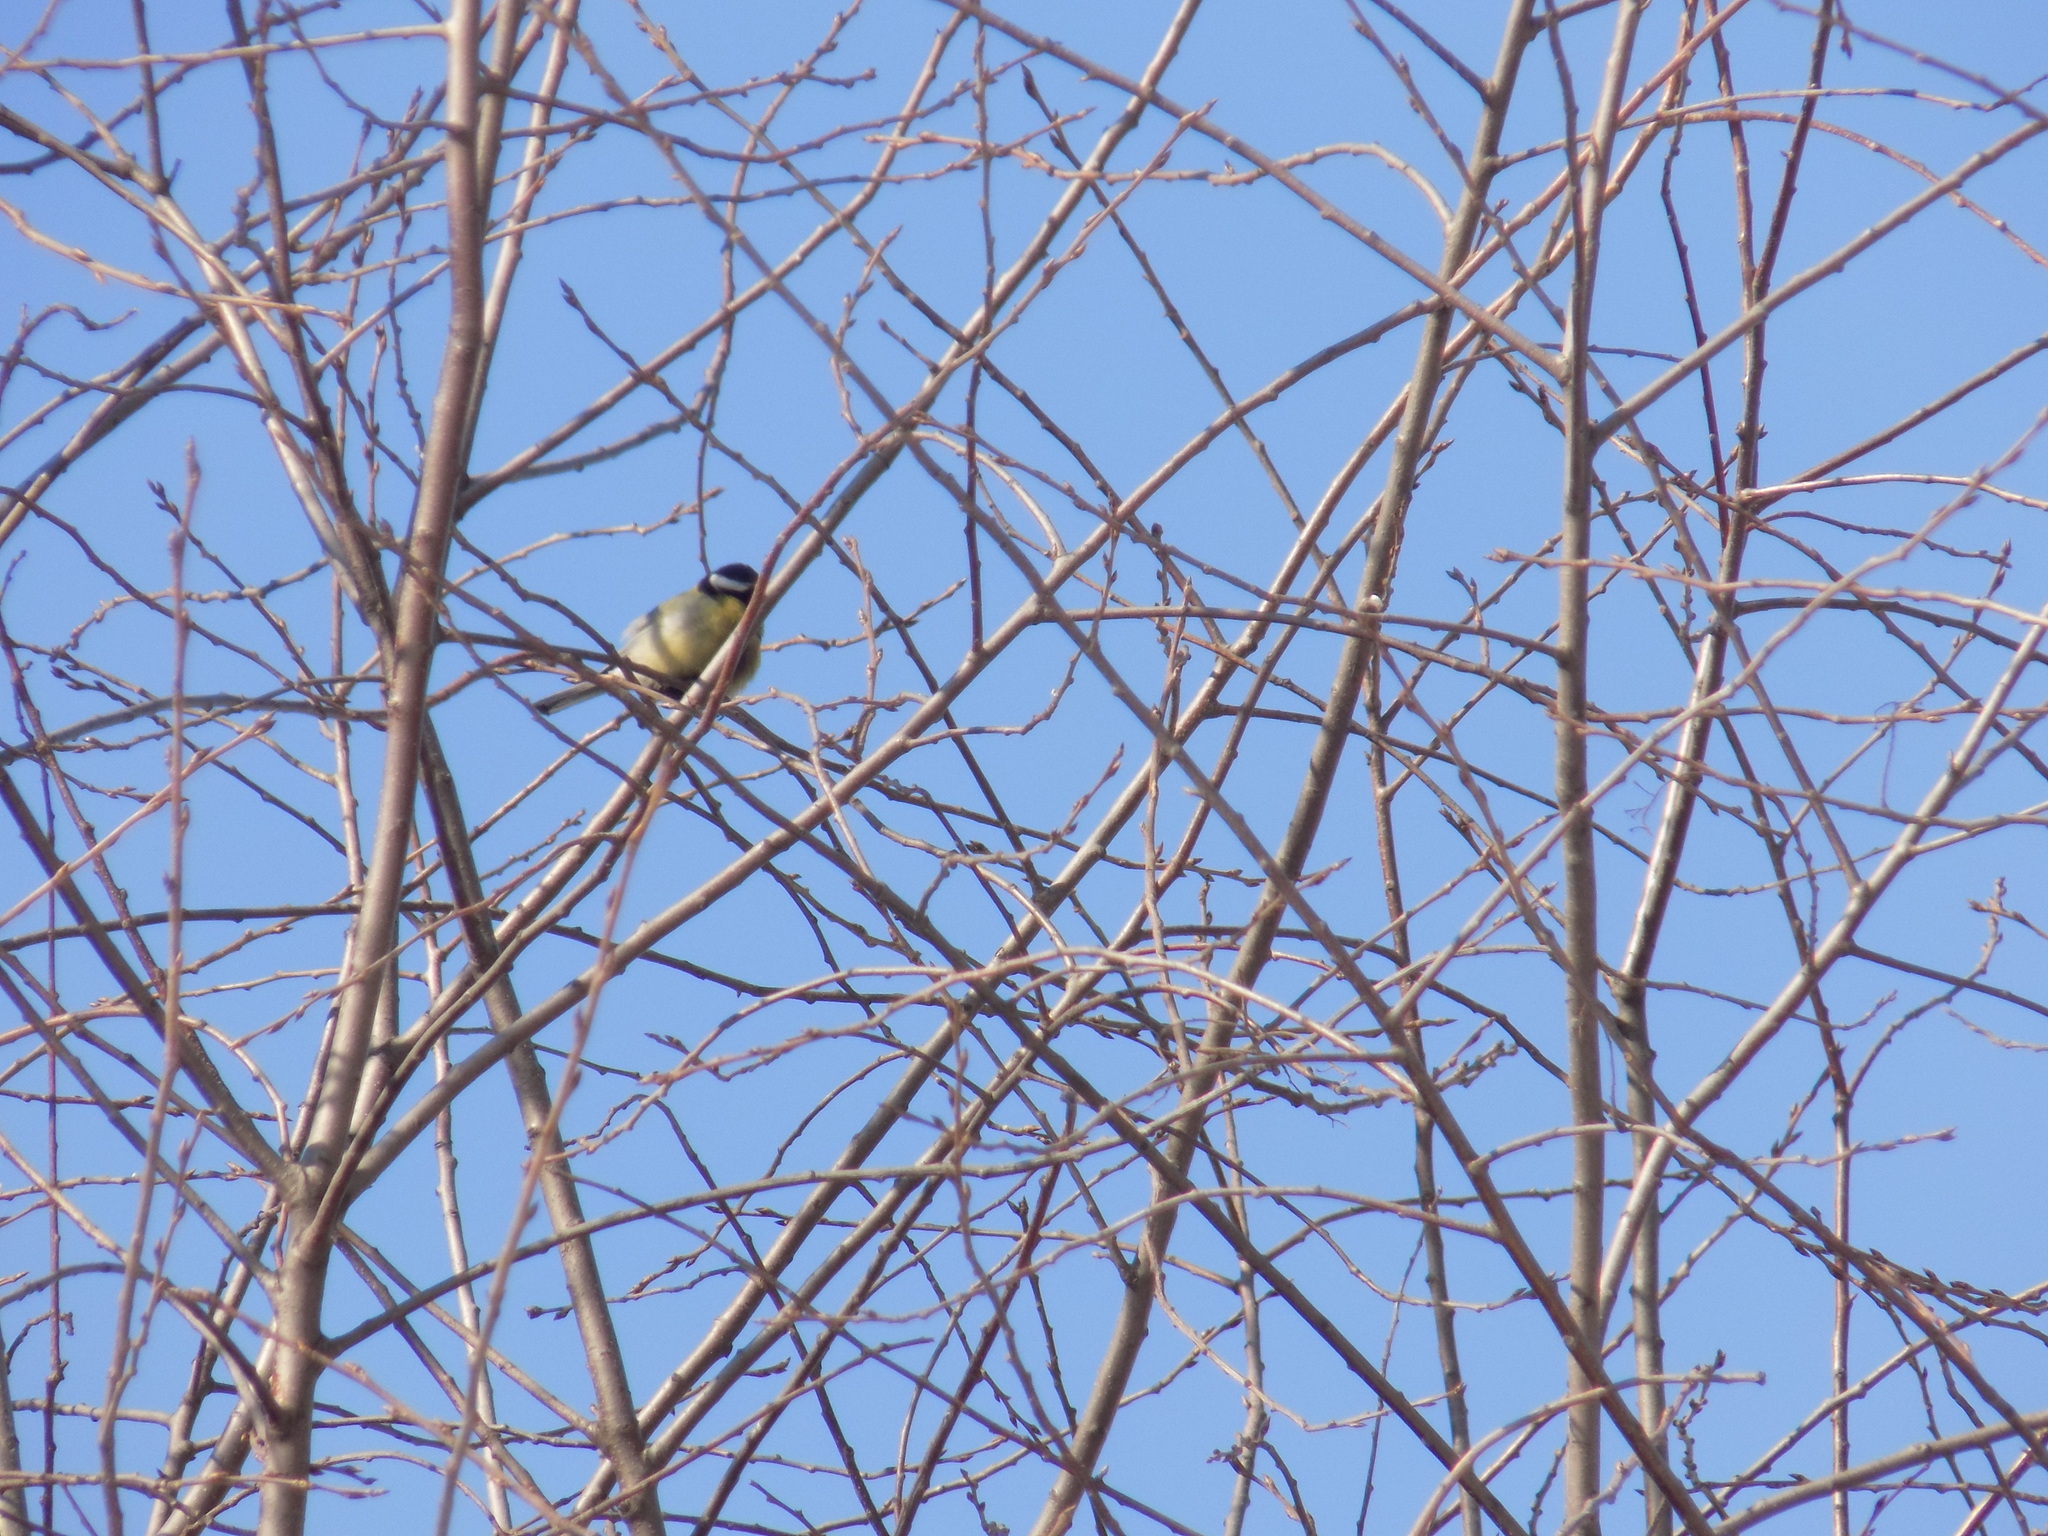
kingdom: Animalia
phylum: Chordata
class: Aves
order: Passeriformes
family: Paridae
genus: Parus
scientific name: Parus major
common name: Great tit
